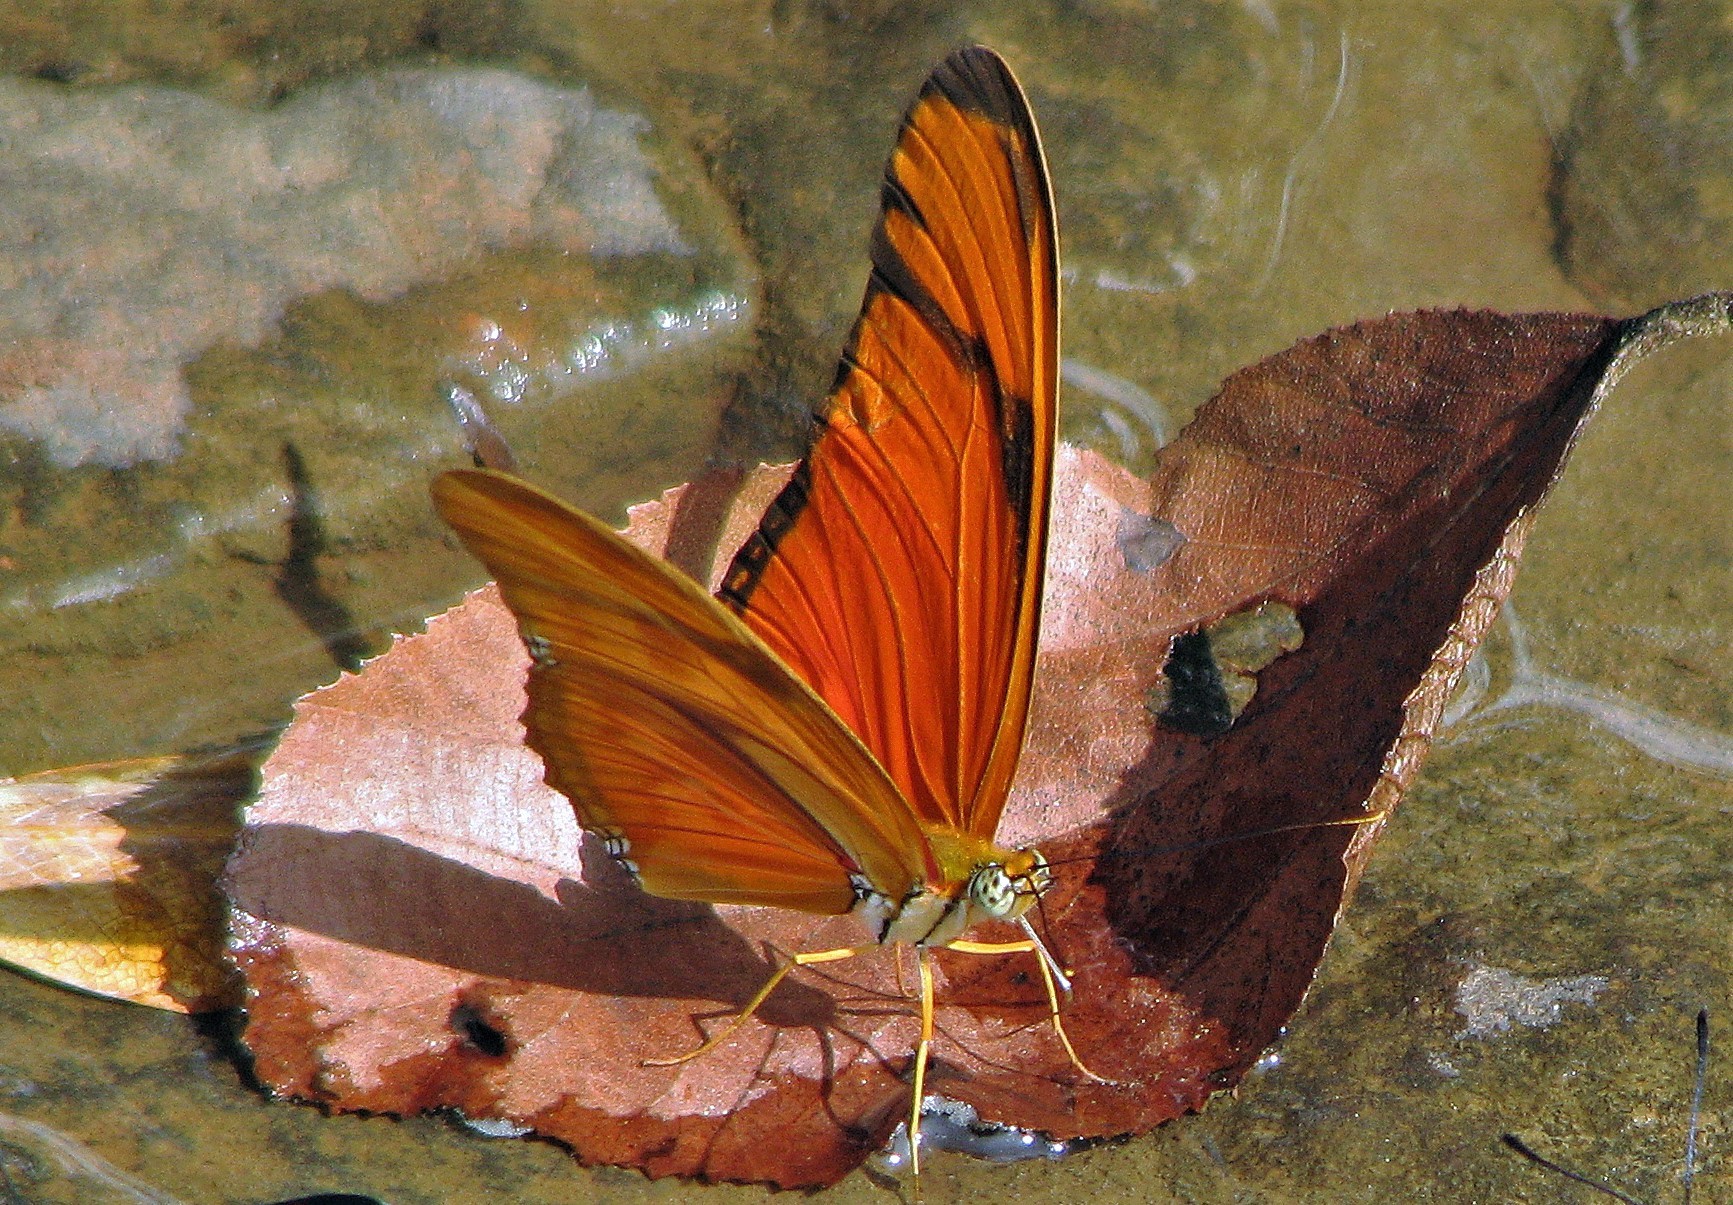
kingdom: Animalia
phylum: Arthropoda
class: Insecta
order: Lepidoptera
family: Nymphalidae
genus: Dryas
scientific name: Dryas iulia
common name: Flambeau
